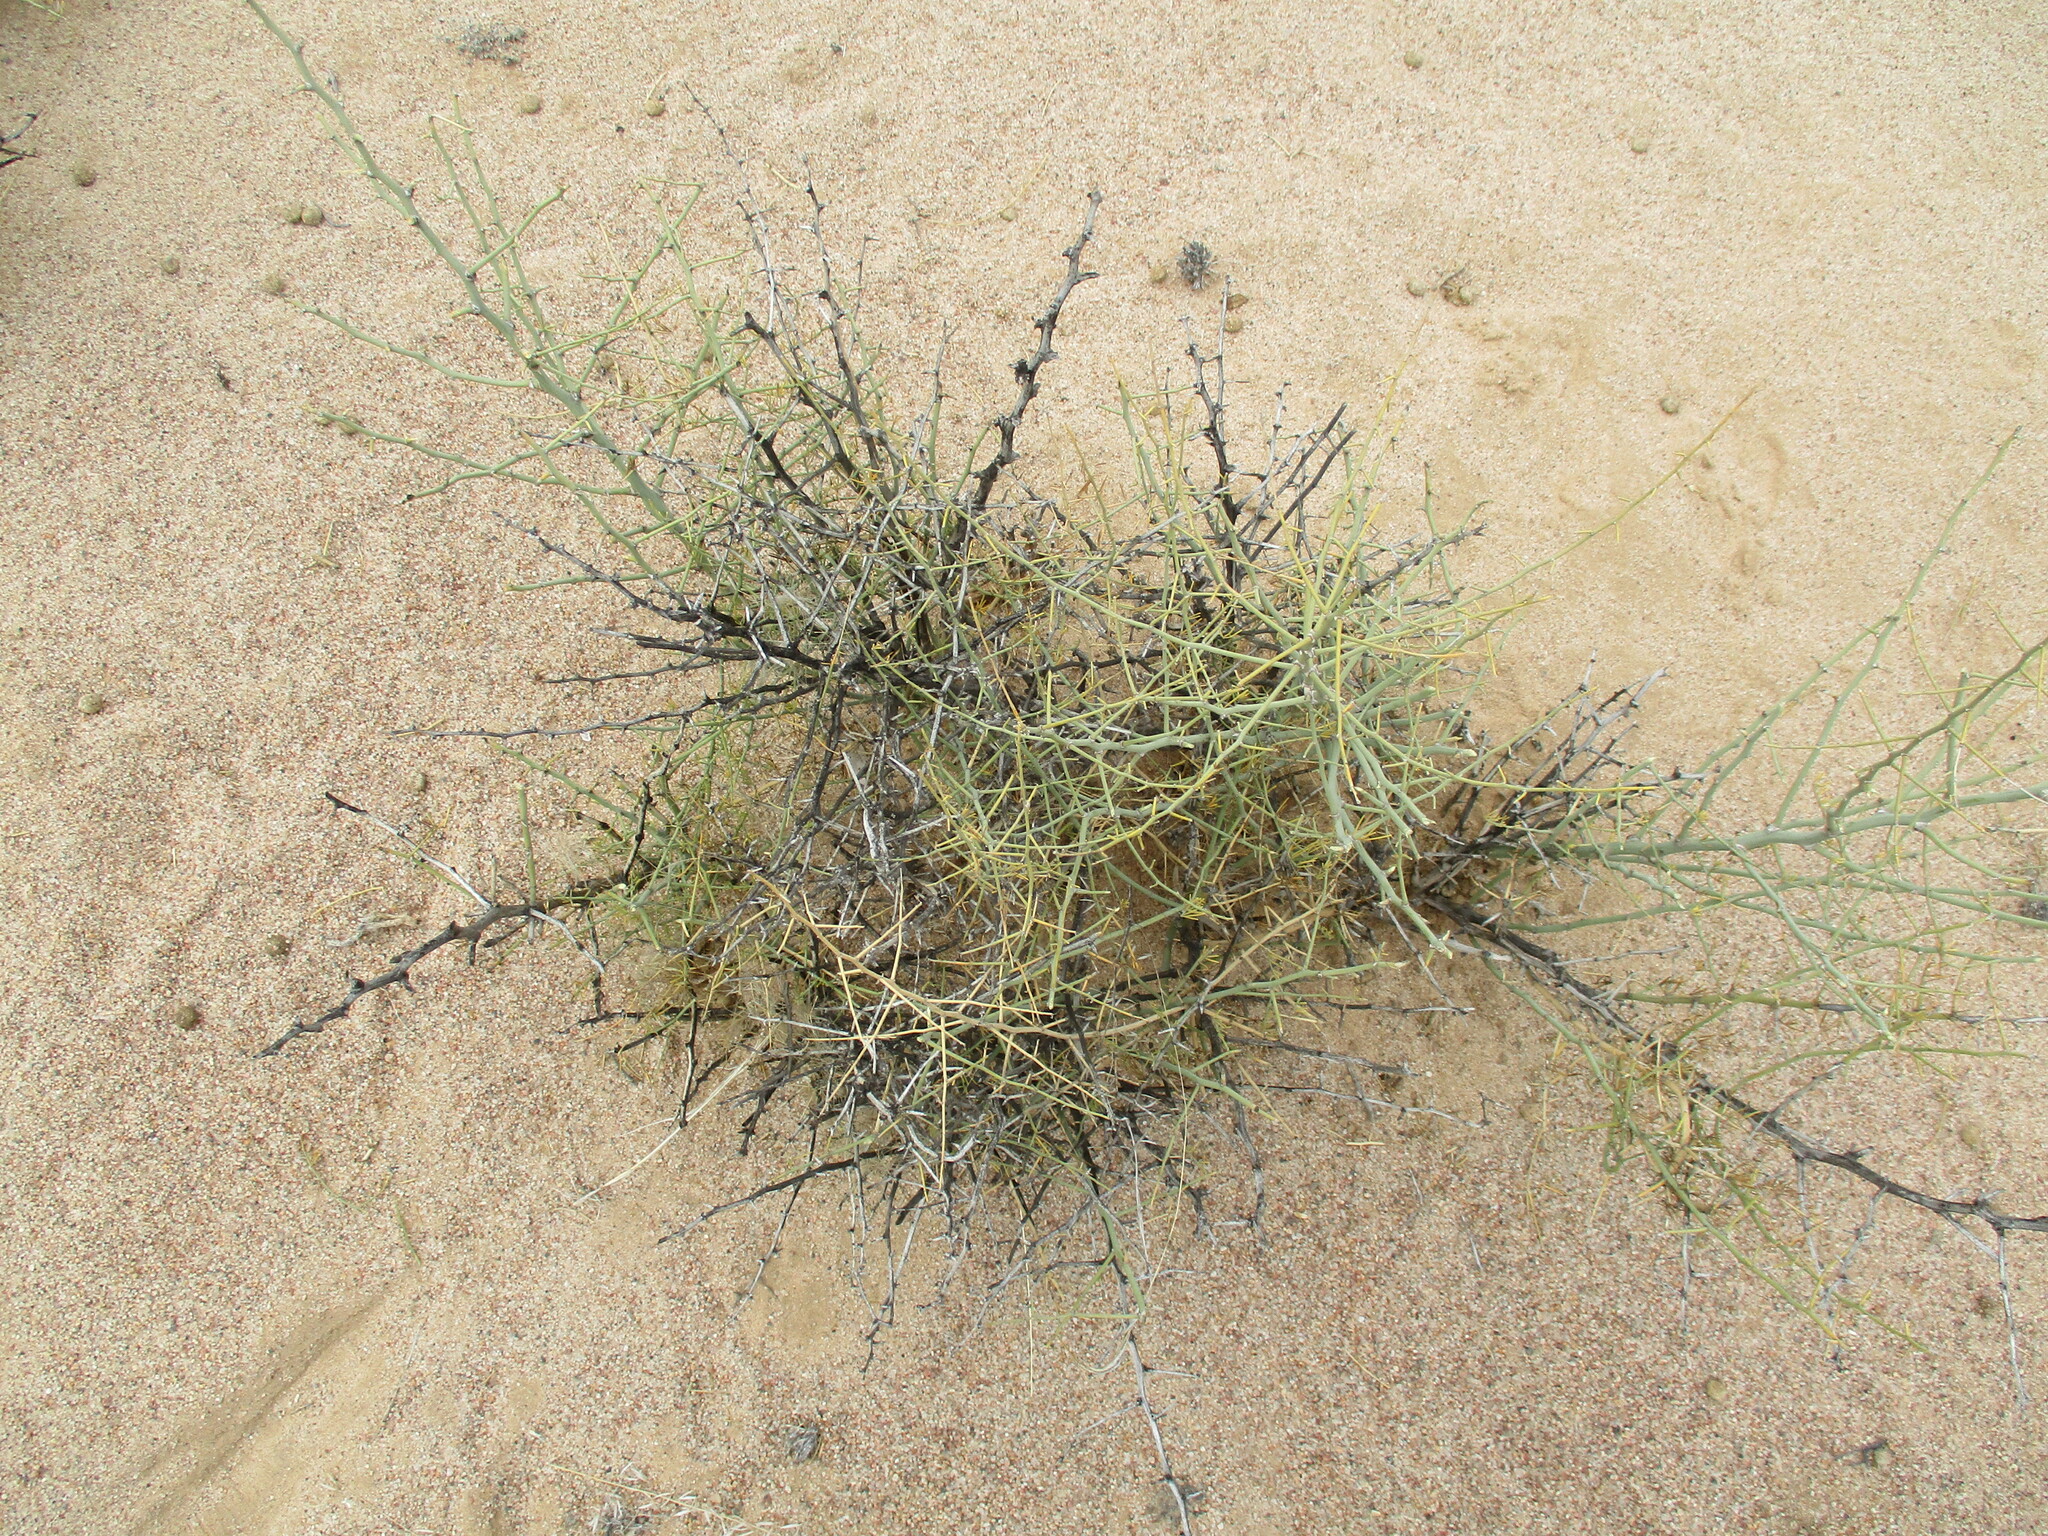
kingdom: Plantae
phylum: Tracheophyta
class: Liliopsida
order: Asparagales
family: Asparagaceae
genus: Asparagus
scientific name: Asparagus pearsonii
